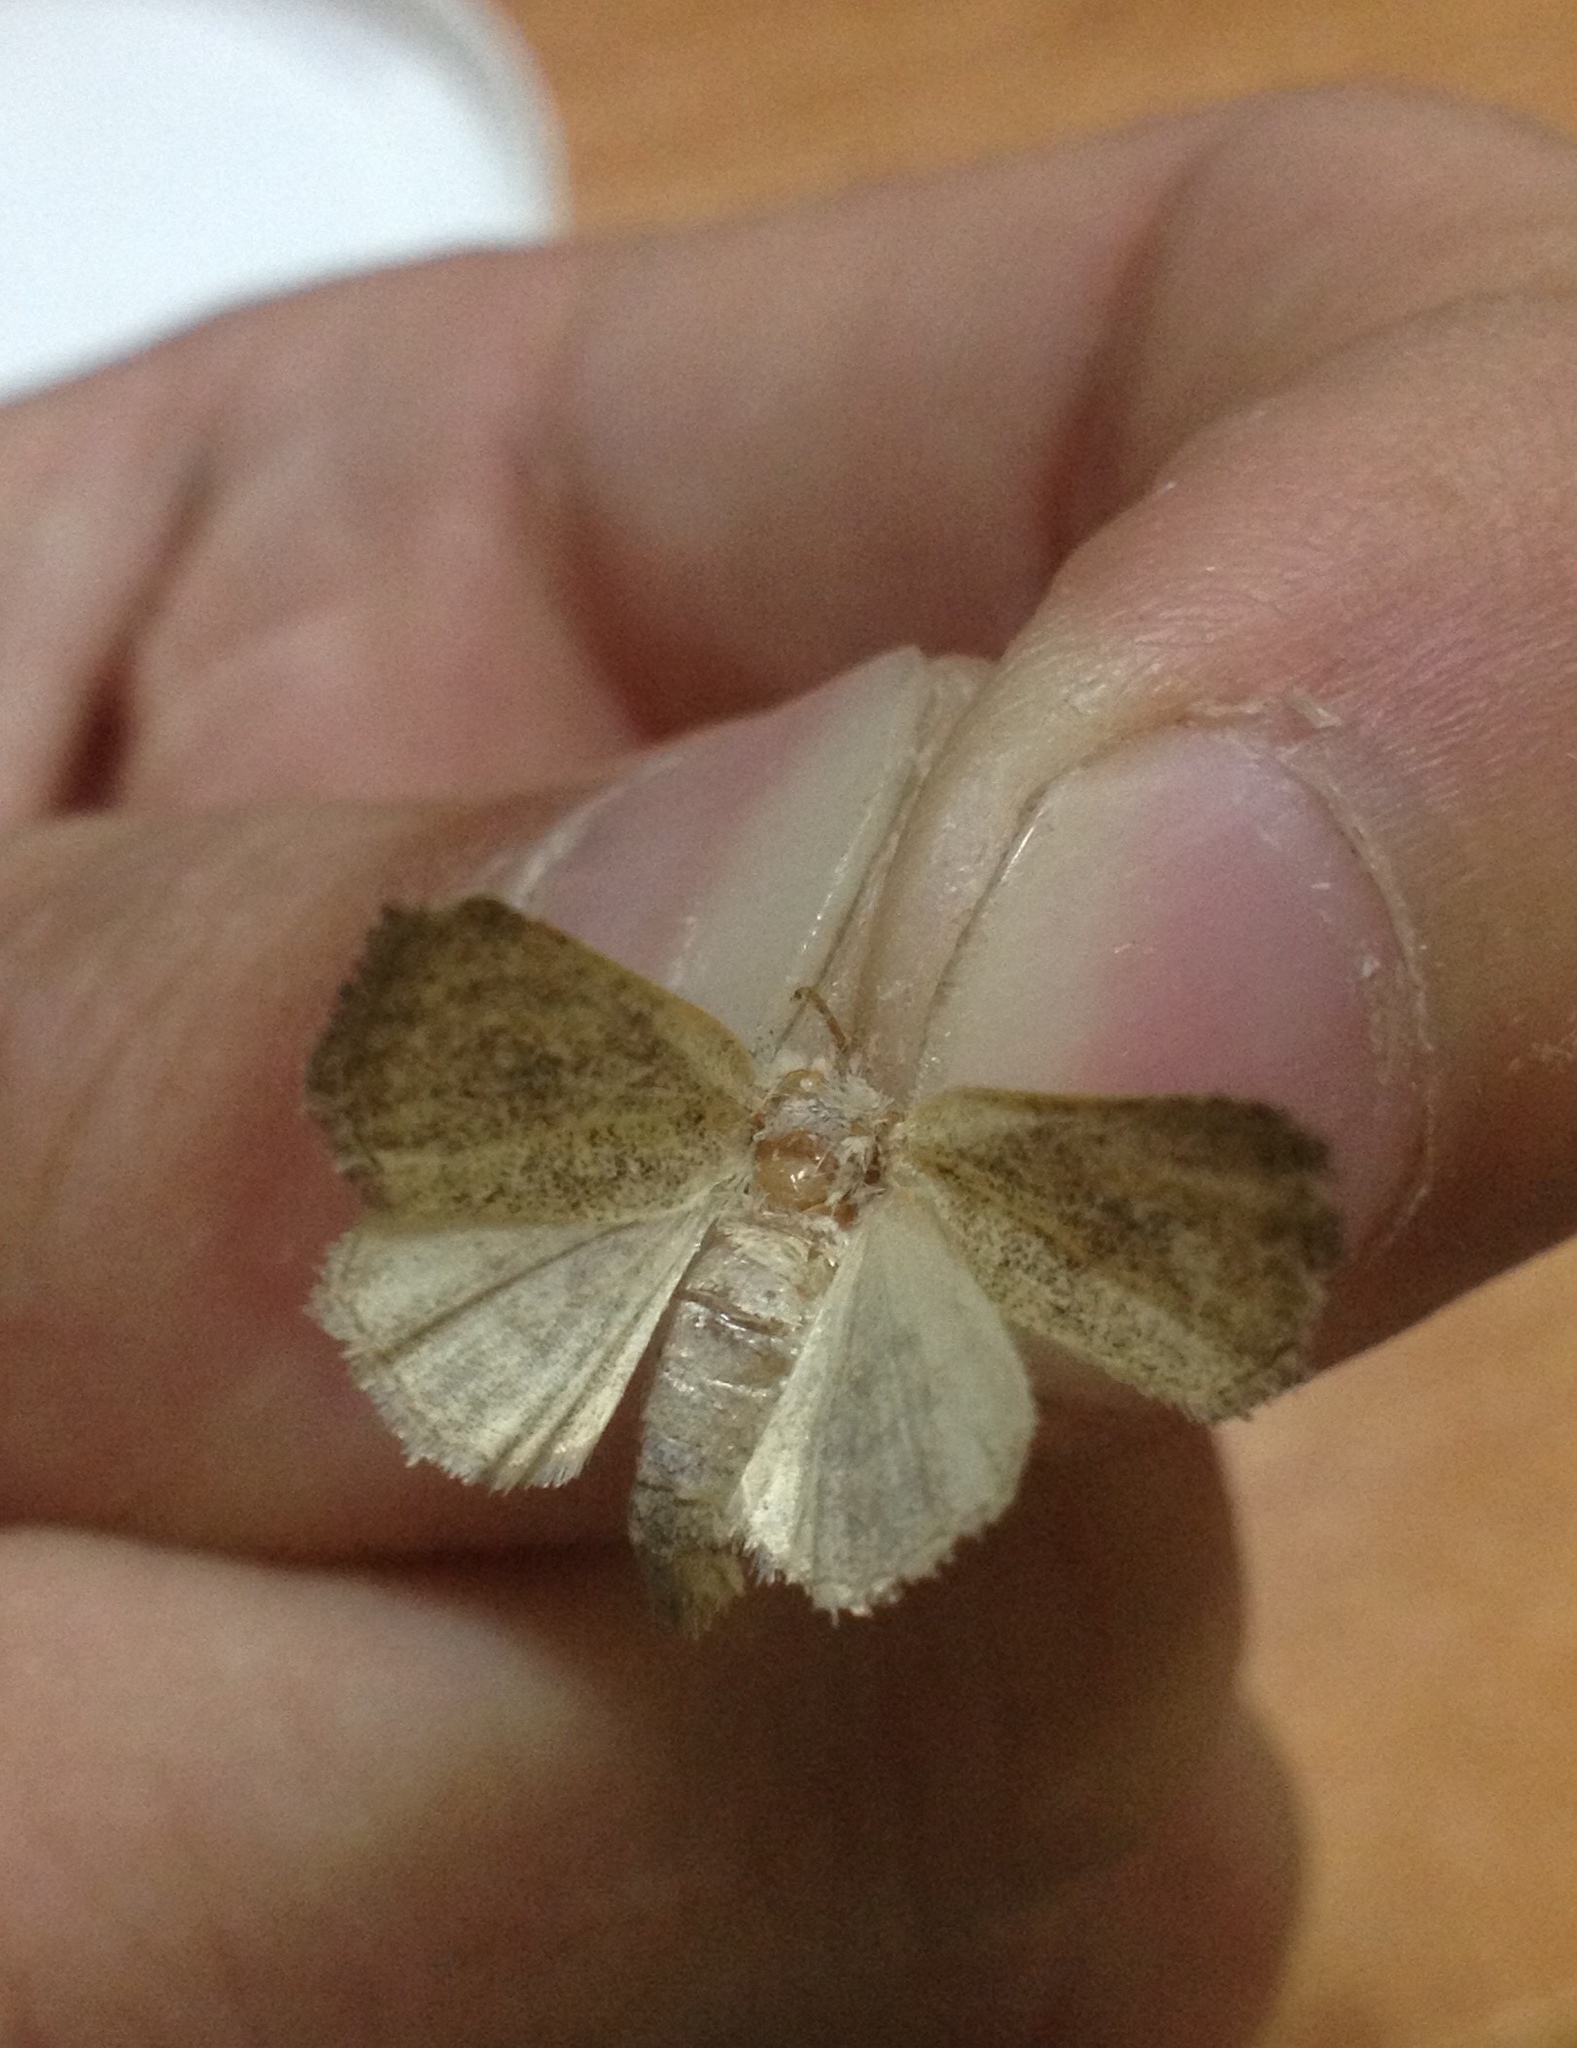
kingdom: Animalia
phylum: Arthropoda
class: Insecta
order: Lepidoptera
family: Noctuidae
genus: Photedes
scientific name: Photedes fluxa
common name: Mere wainscot
